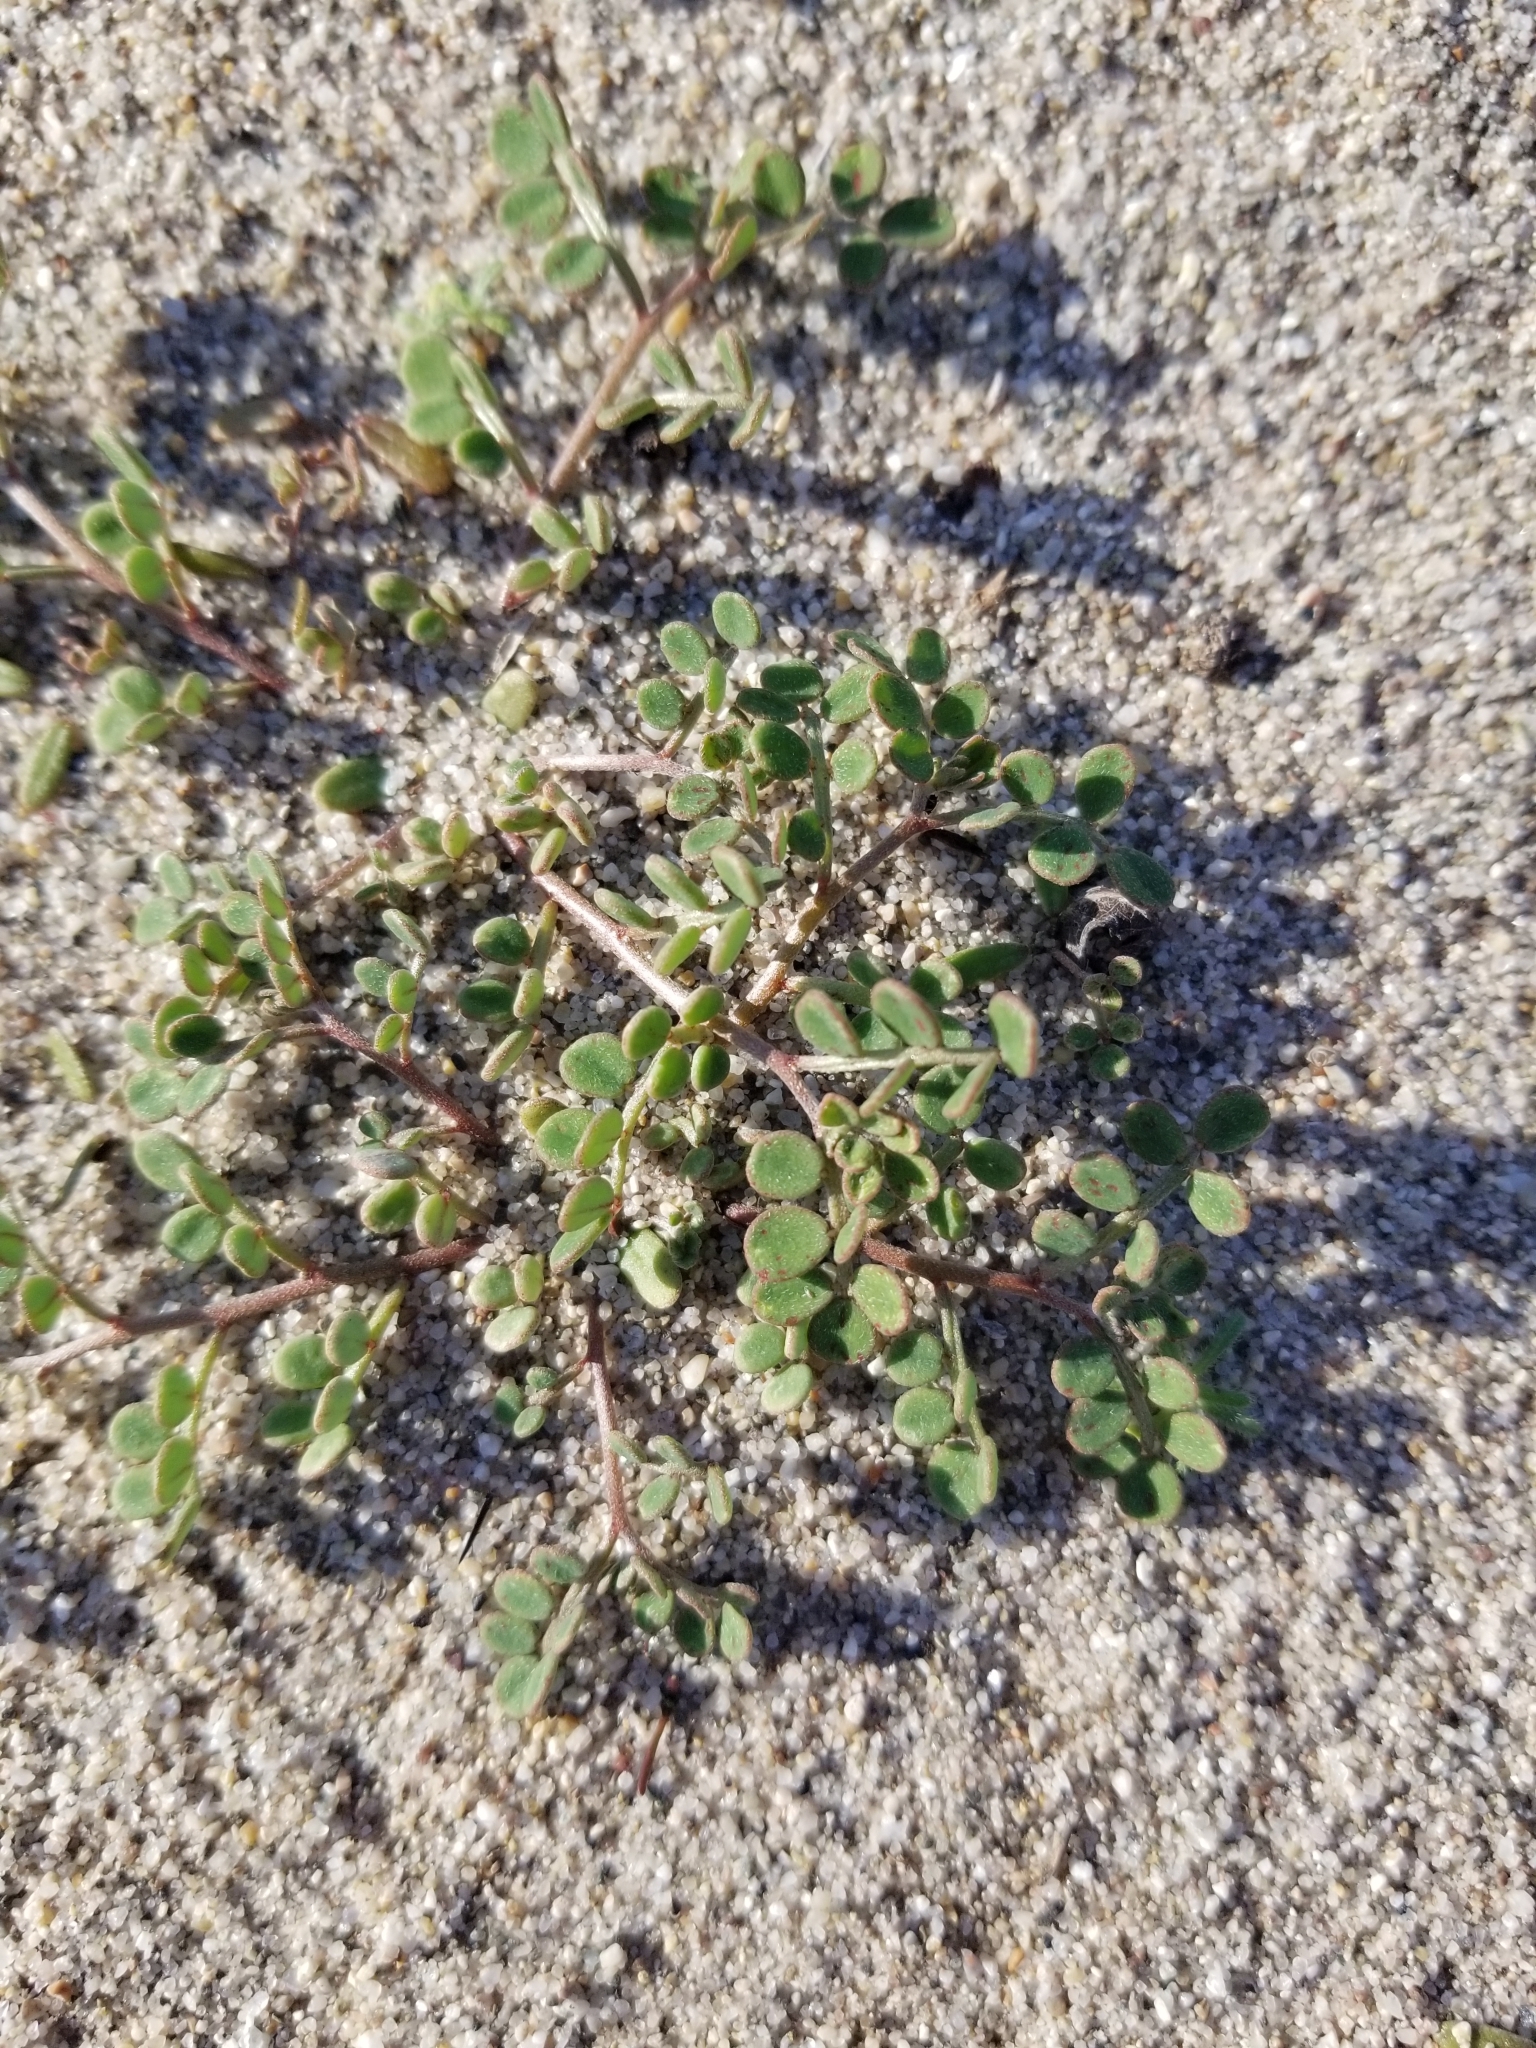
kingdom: Plantae
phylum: Tracheophyta
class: Magnoliopsida
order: Fabales
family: Fabaceae
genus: Acmispon
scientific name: Acmispon maritimus
